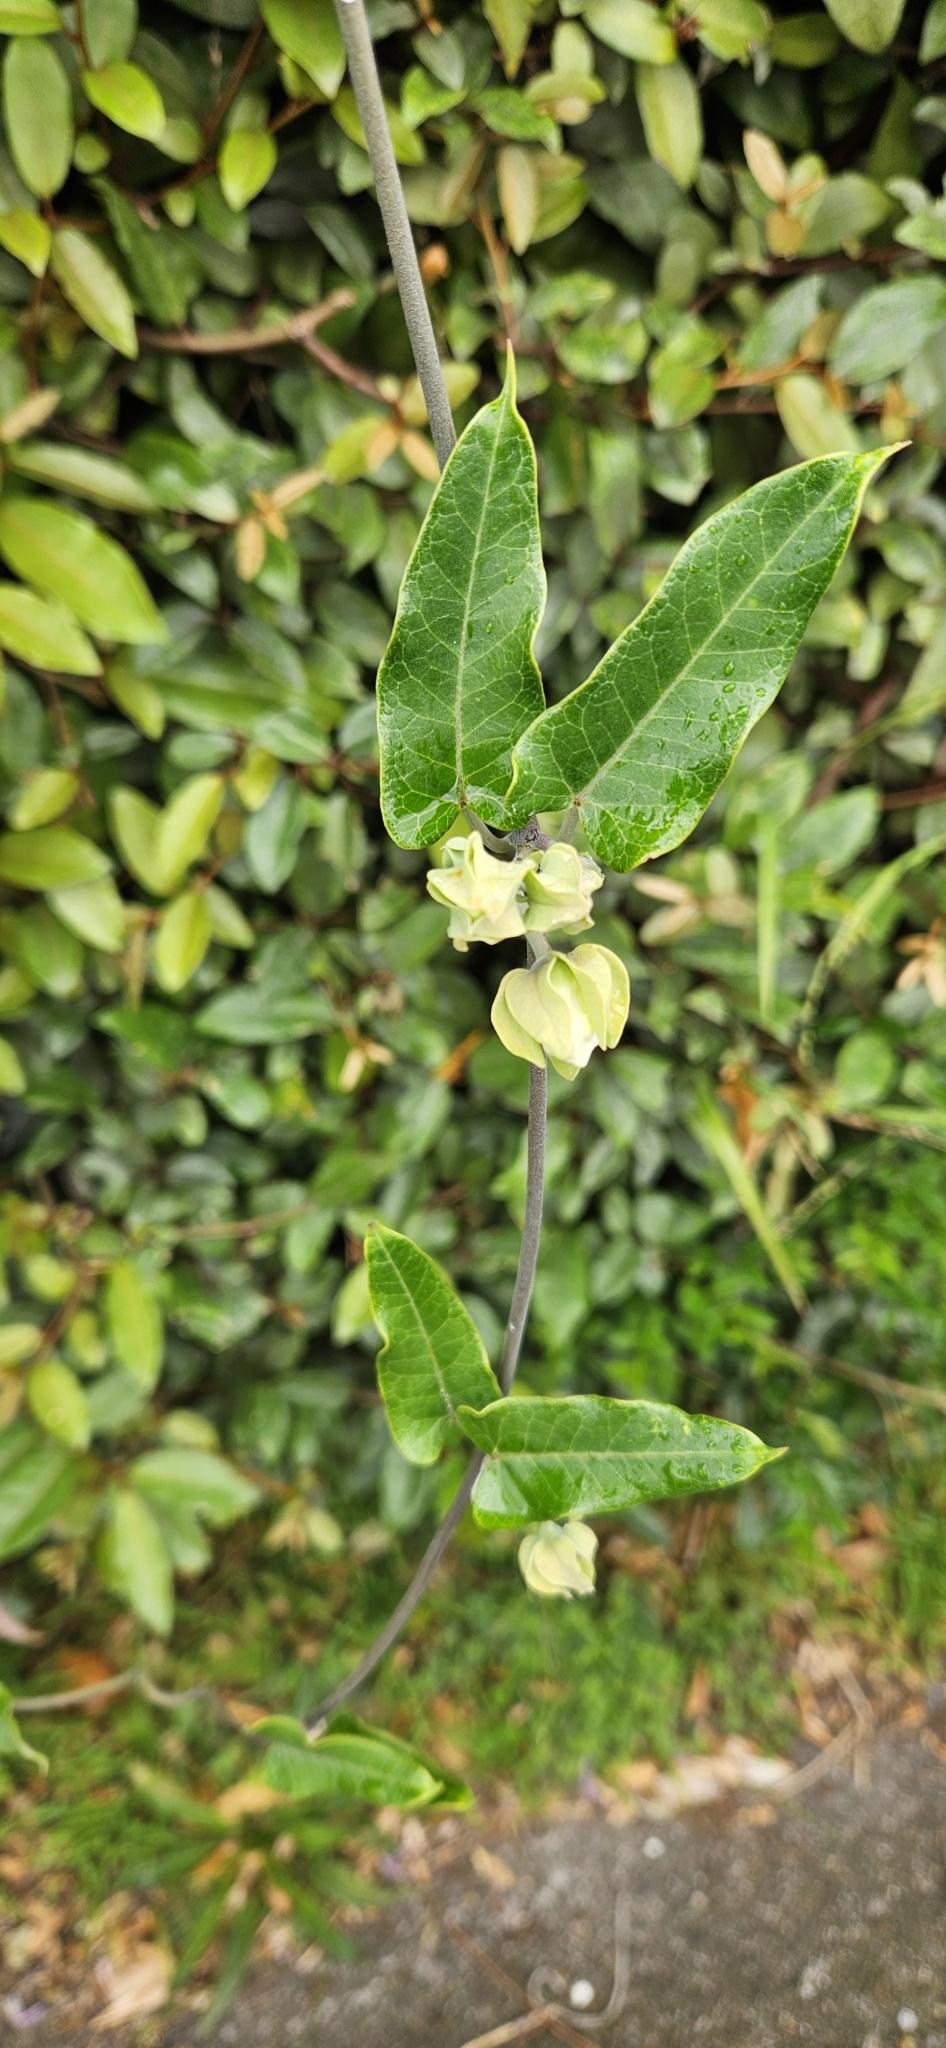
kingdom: Plantae
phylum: Tracheophyta
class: Magnoliopsida
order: Gentianales
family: Apocynaceae
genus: Araujia
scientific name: Araujia sericifera
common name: White bladderflower
